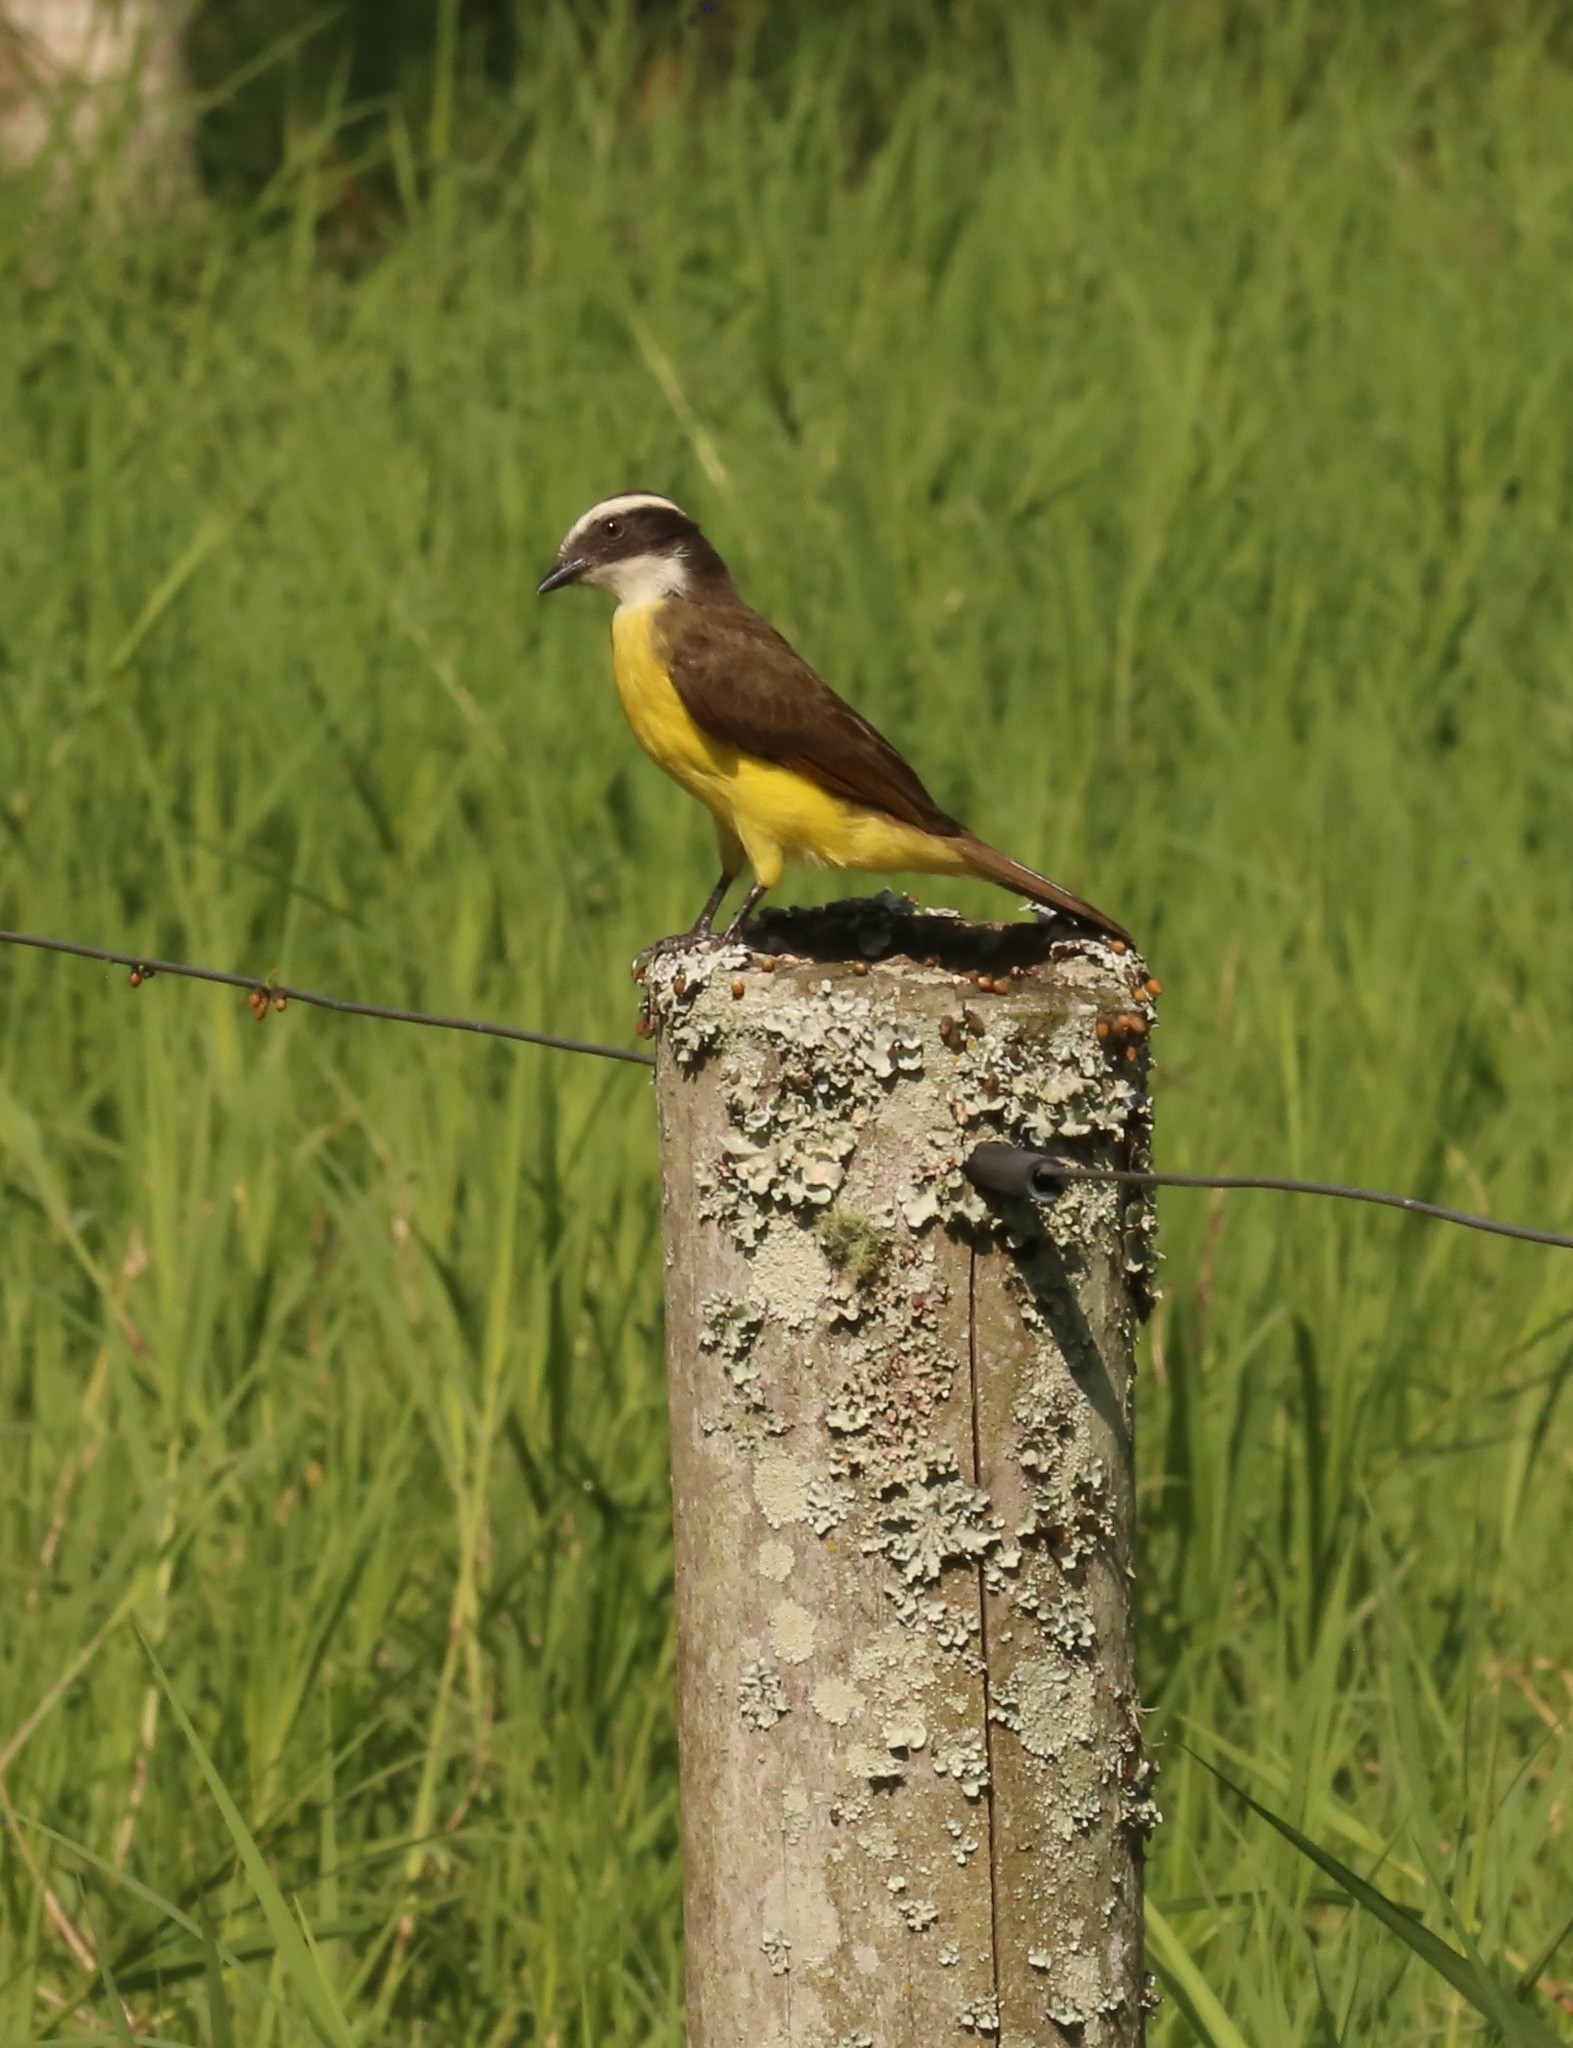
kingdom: Animalia
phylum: Chordata
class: Aves
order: Passeriformes
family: Tyrannidae
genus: Myiozetetes
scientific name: Myiozetetes cayanensis
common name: Rusty-margined flycatcher
